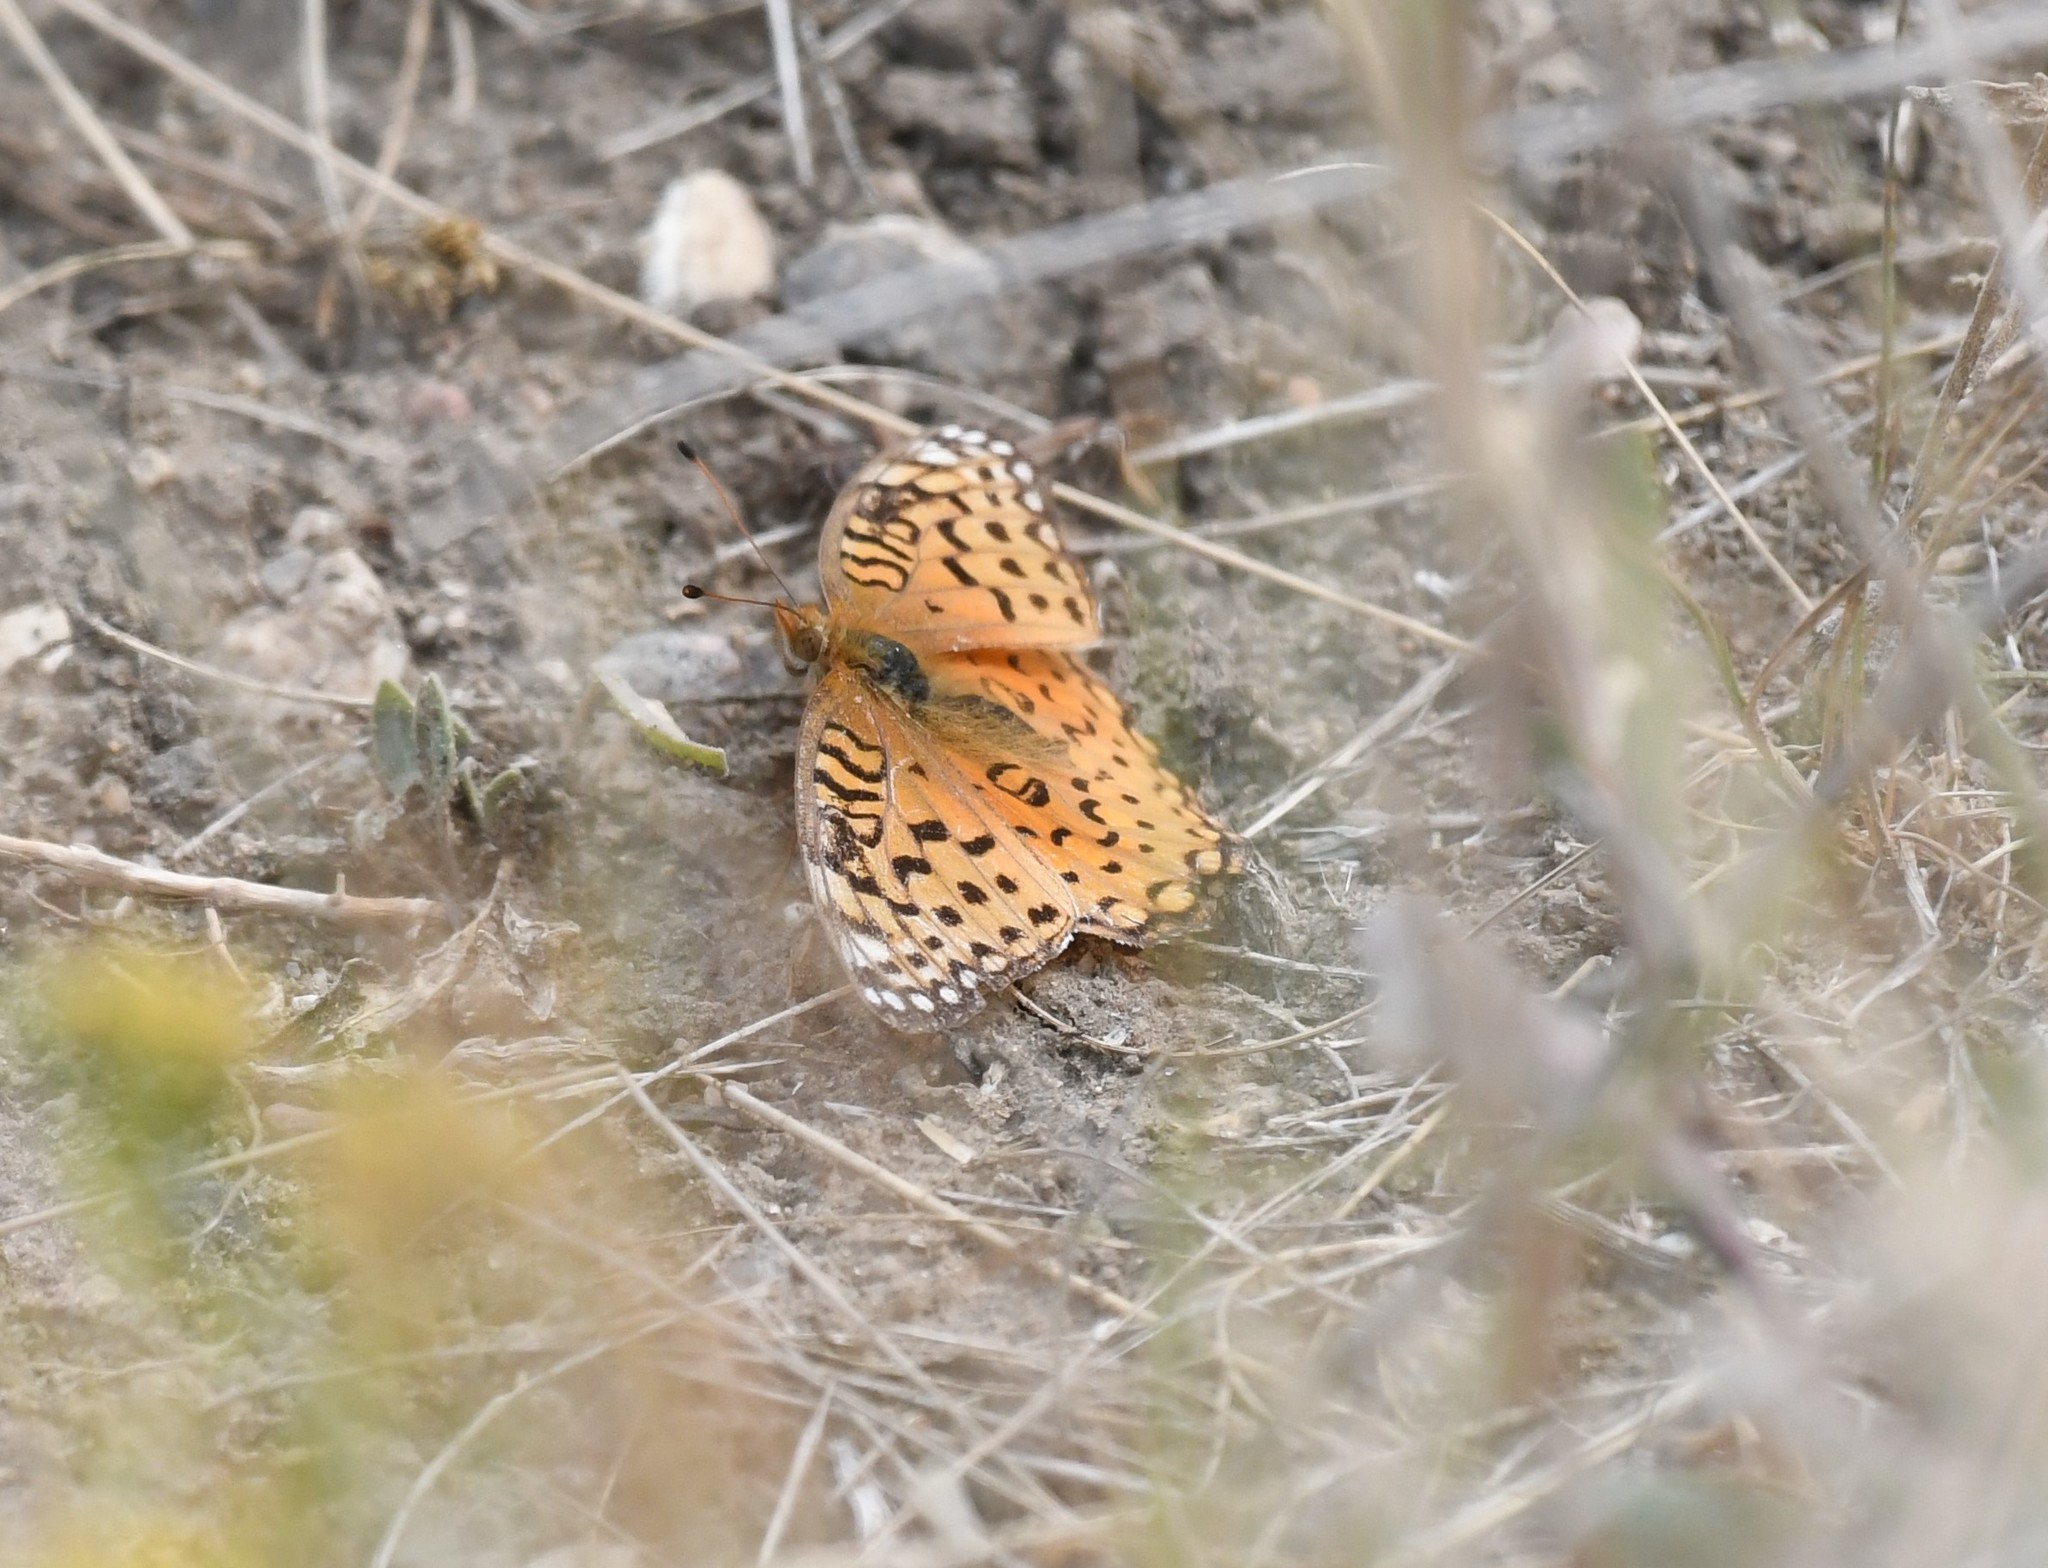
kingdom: Animalia
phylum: Arthropoda
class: Insecta
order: Lepidoptera
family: Nymphalidae
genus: Speyeria
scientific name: Speyeria aphrodite
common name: Aphrodite friitllary
